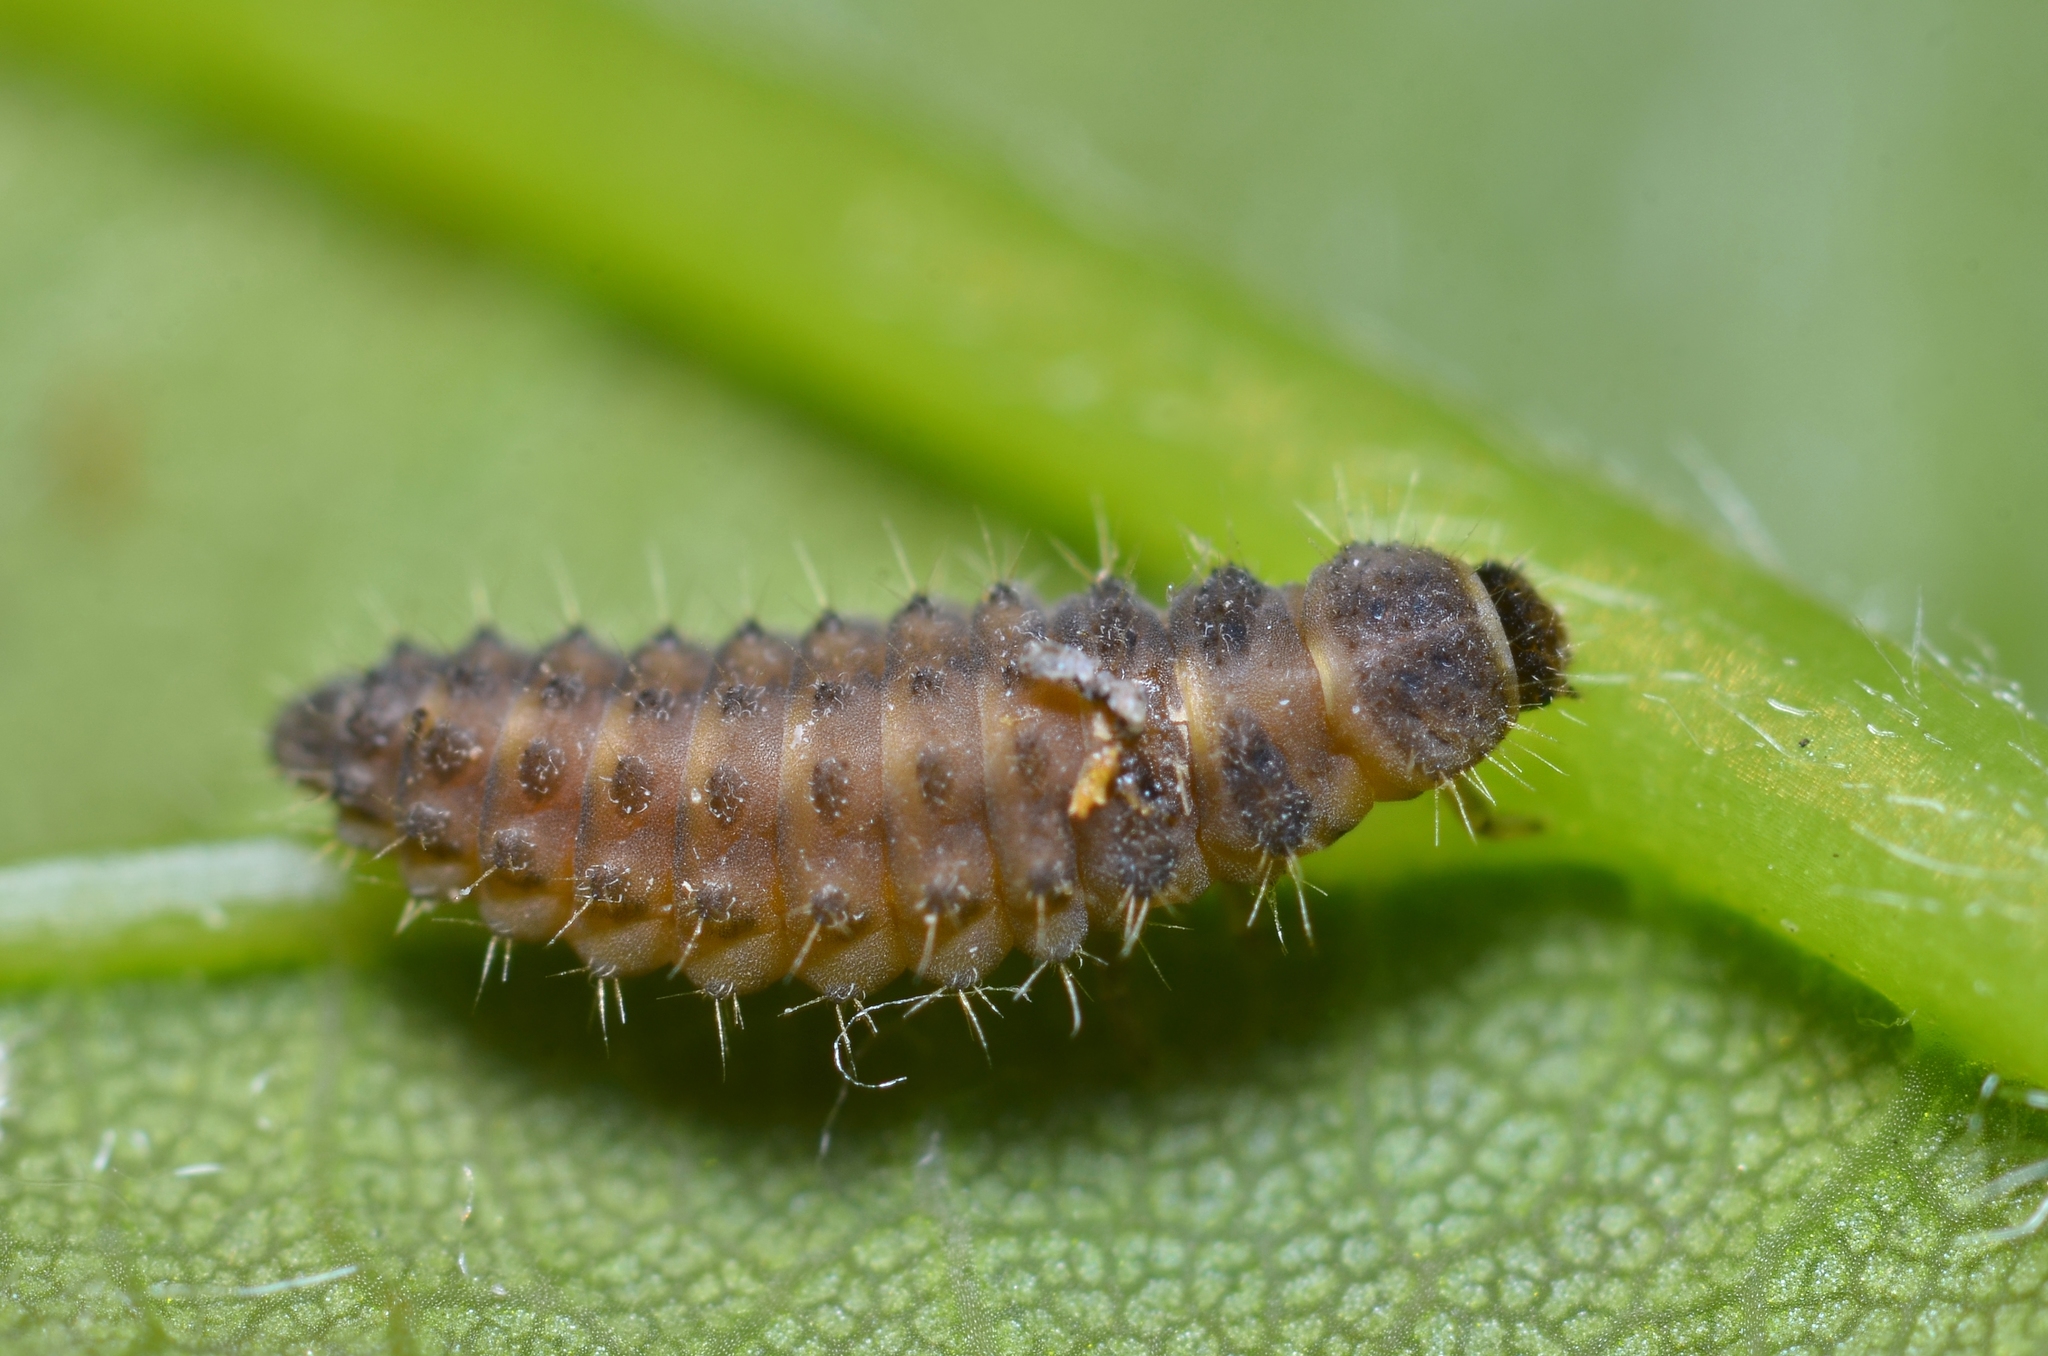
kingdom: Animalia
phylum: Arthropoda
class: Insecta
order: Coleoptera
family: Coccinellidae
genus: Rhyzobius
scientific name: Rhyzobius chrysomeloides
